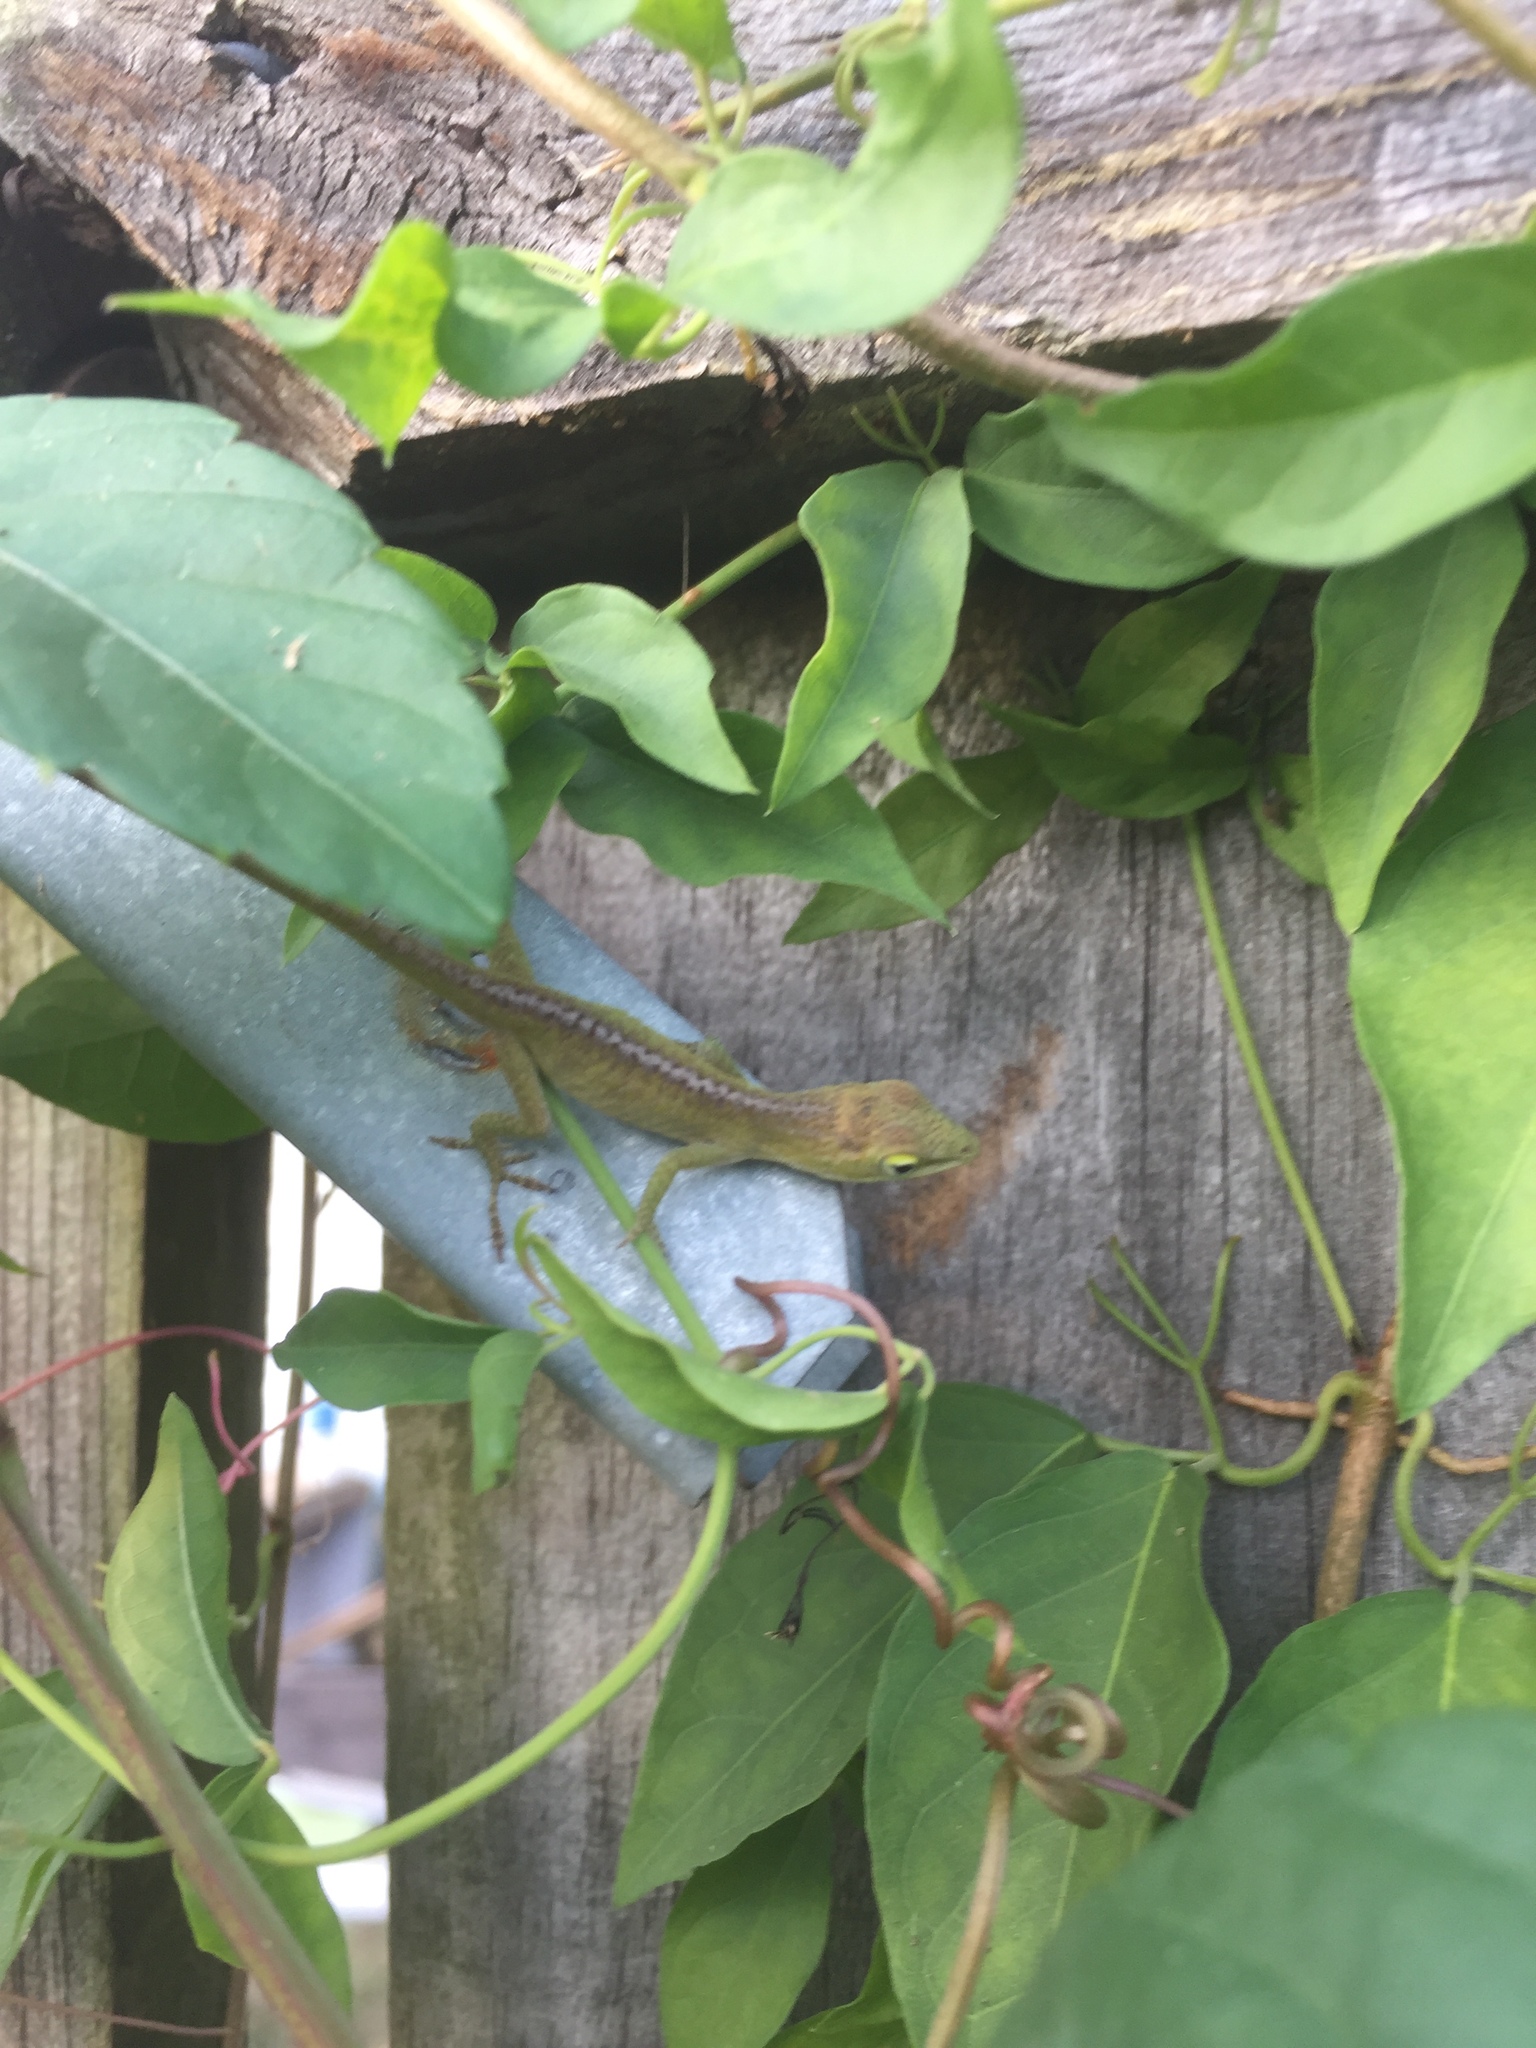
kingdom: Animalia
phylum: Chordata
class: Squamata
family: Dactyloidae
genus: Anolis
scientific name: Anolis carolinensis
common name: Green anole
